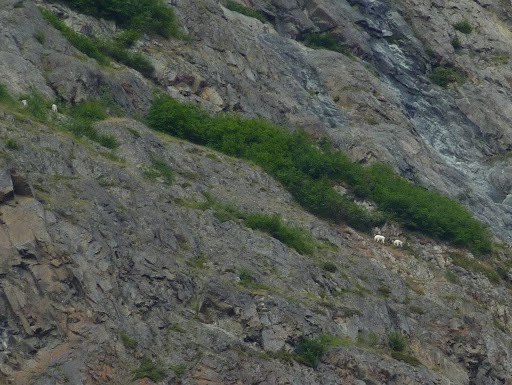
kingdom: Animalia
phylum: Chordata
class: Mammalia
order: Artiodactyla
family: Bovidae
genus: Oreamnos
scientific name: Oreamnos americanus
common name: Mountain goat
